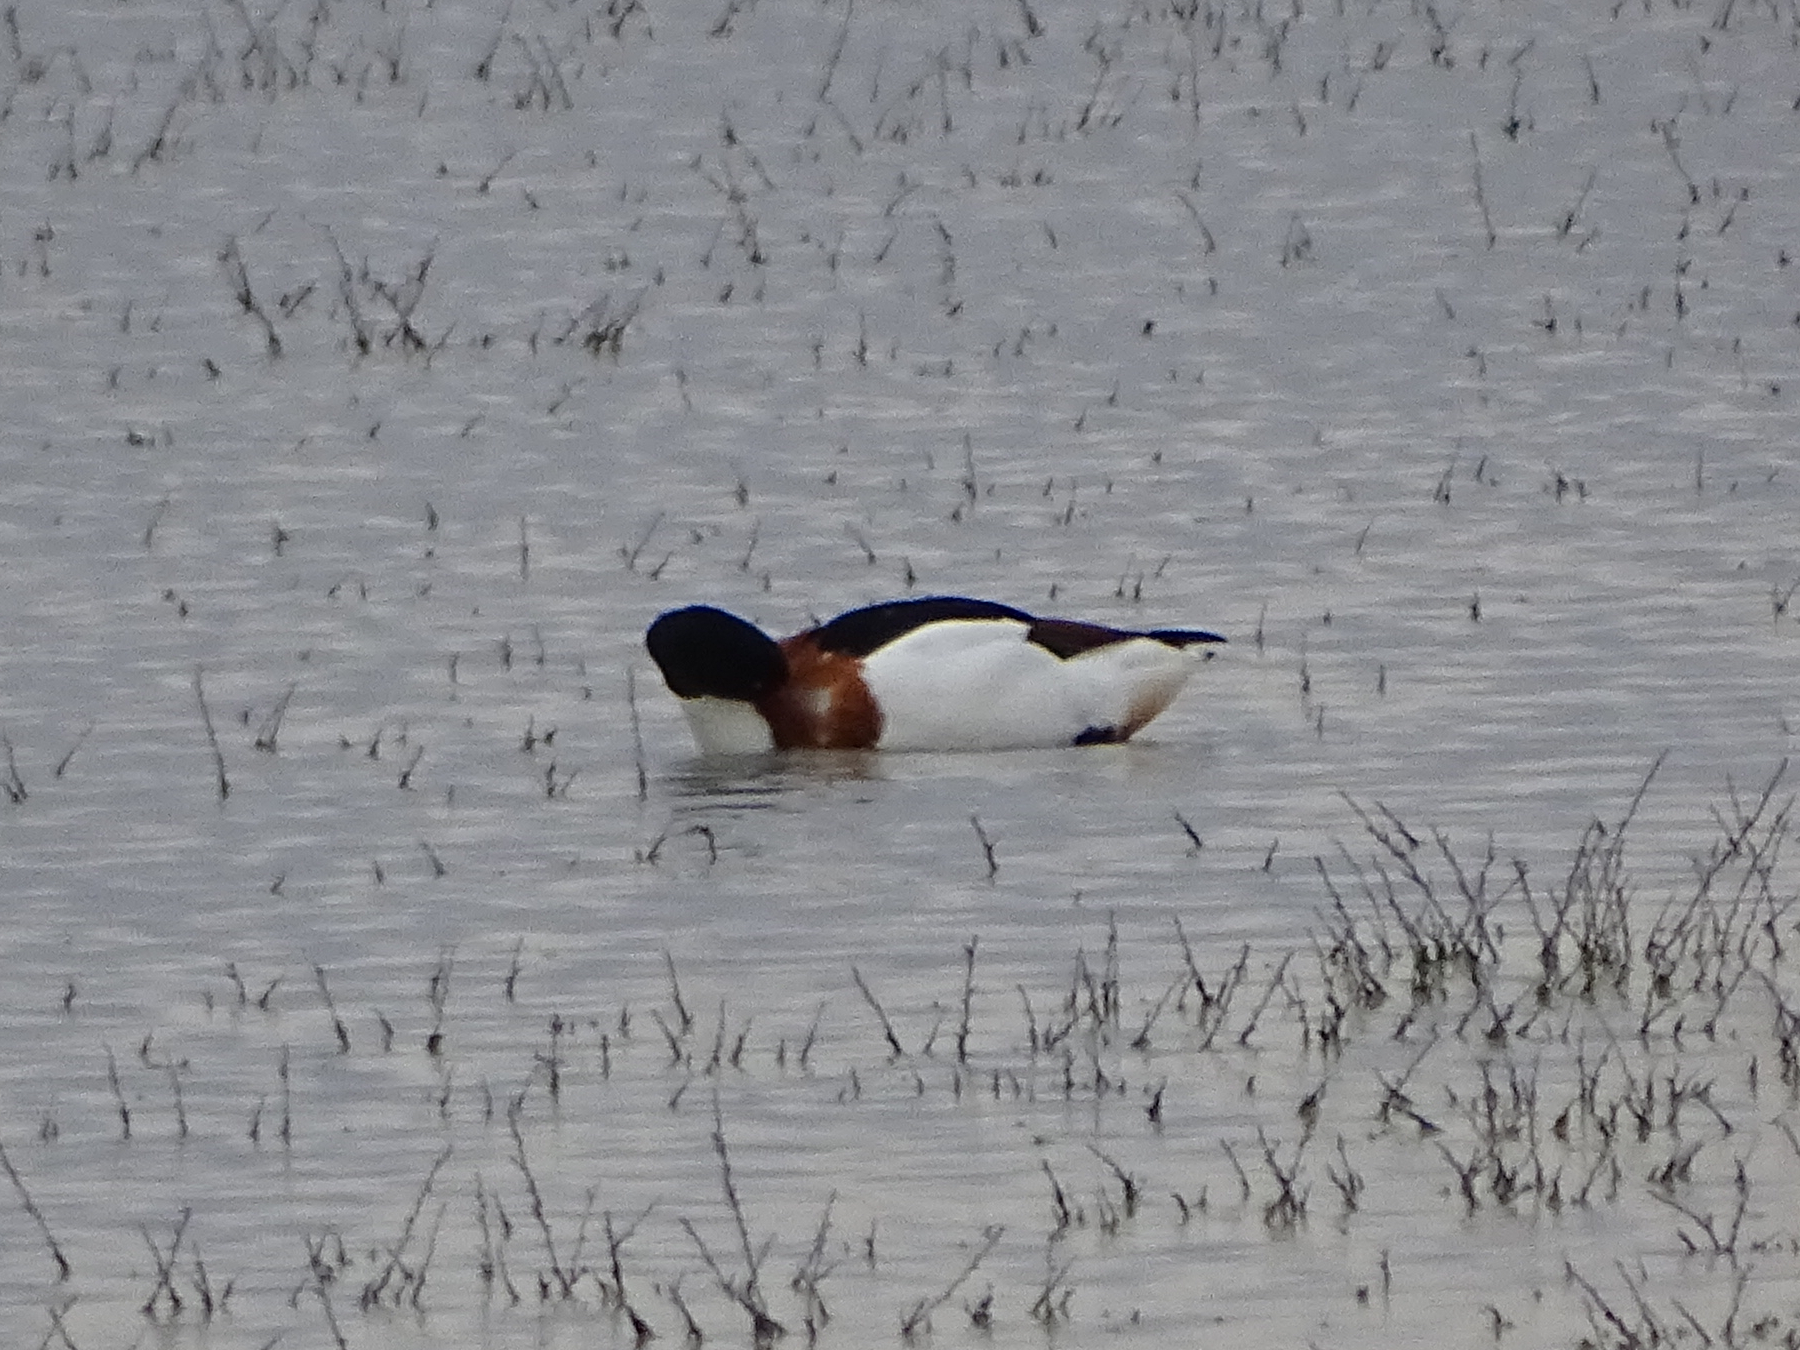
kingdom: Animalia
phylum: Chordata
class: Aves
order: Anseriformes
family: Anatidae
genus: Tadorna
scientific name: Tadorna tadorna
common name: Common shelduck
